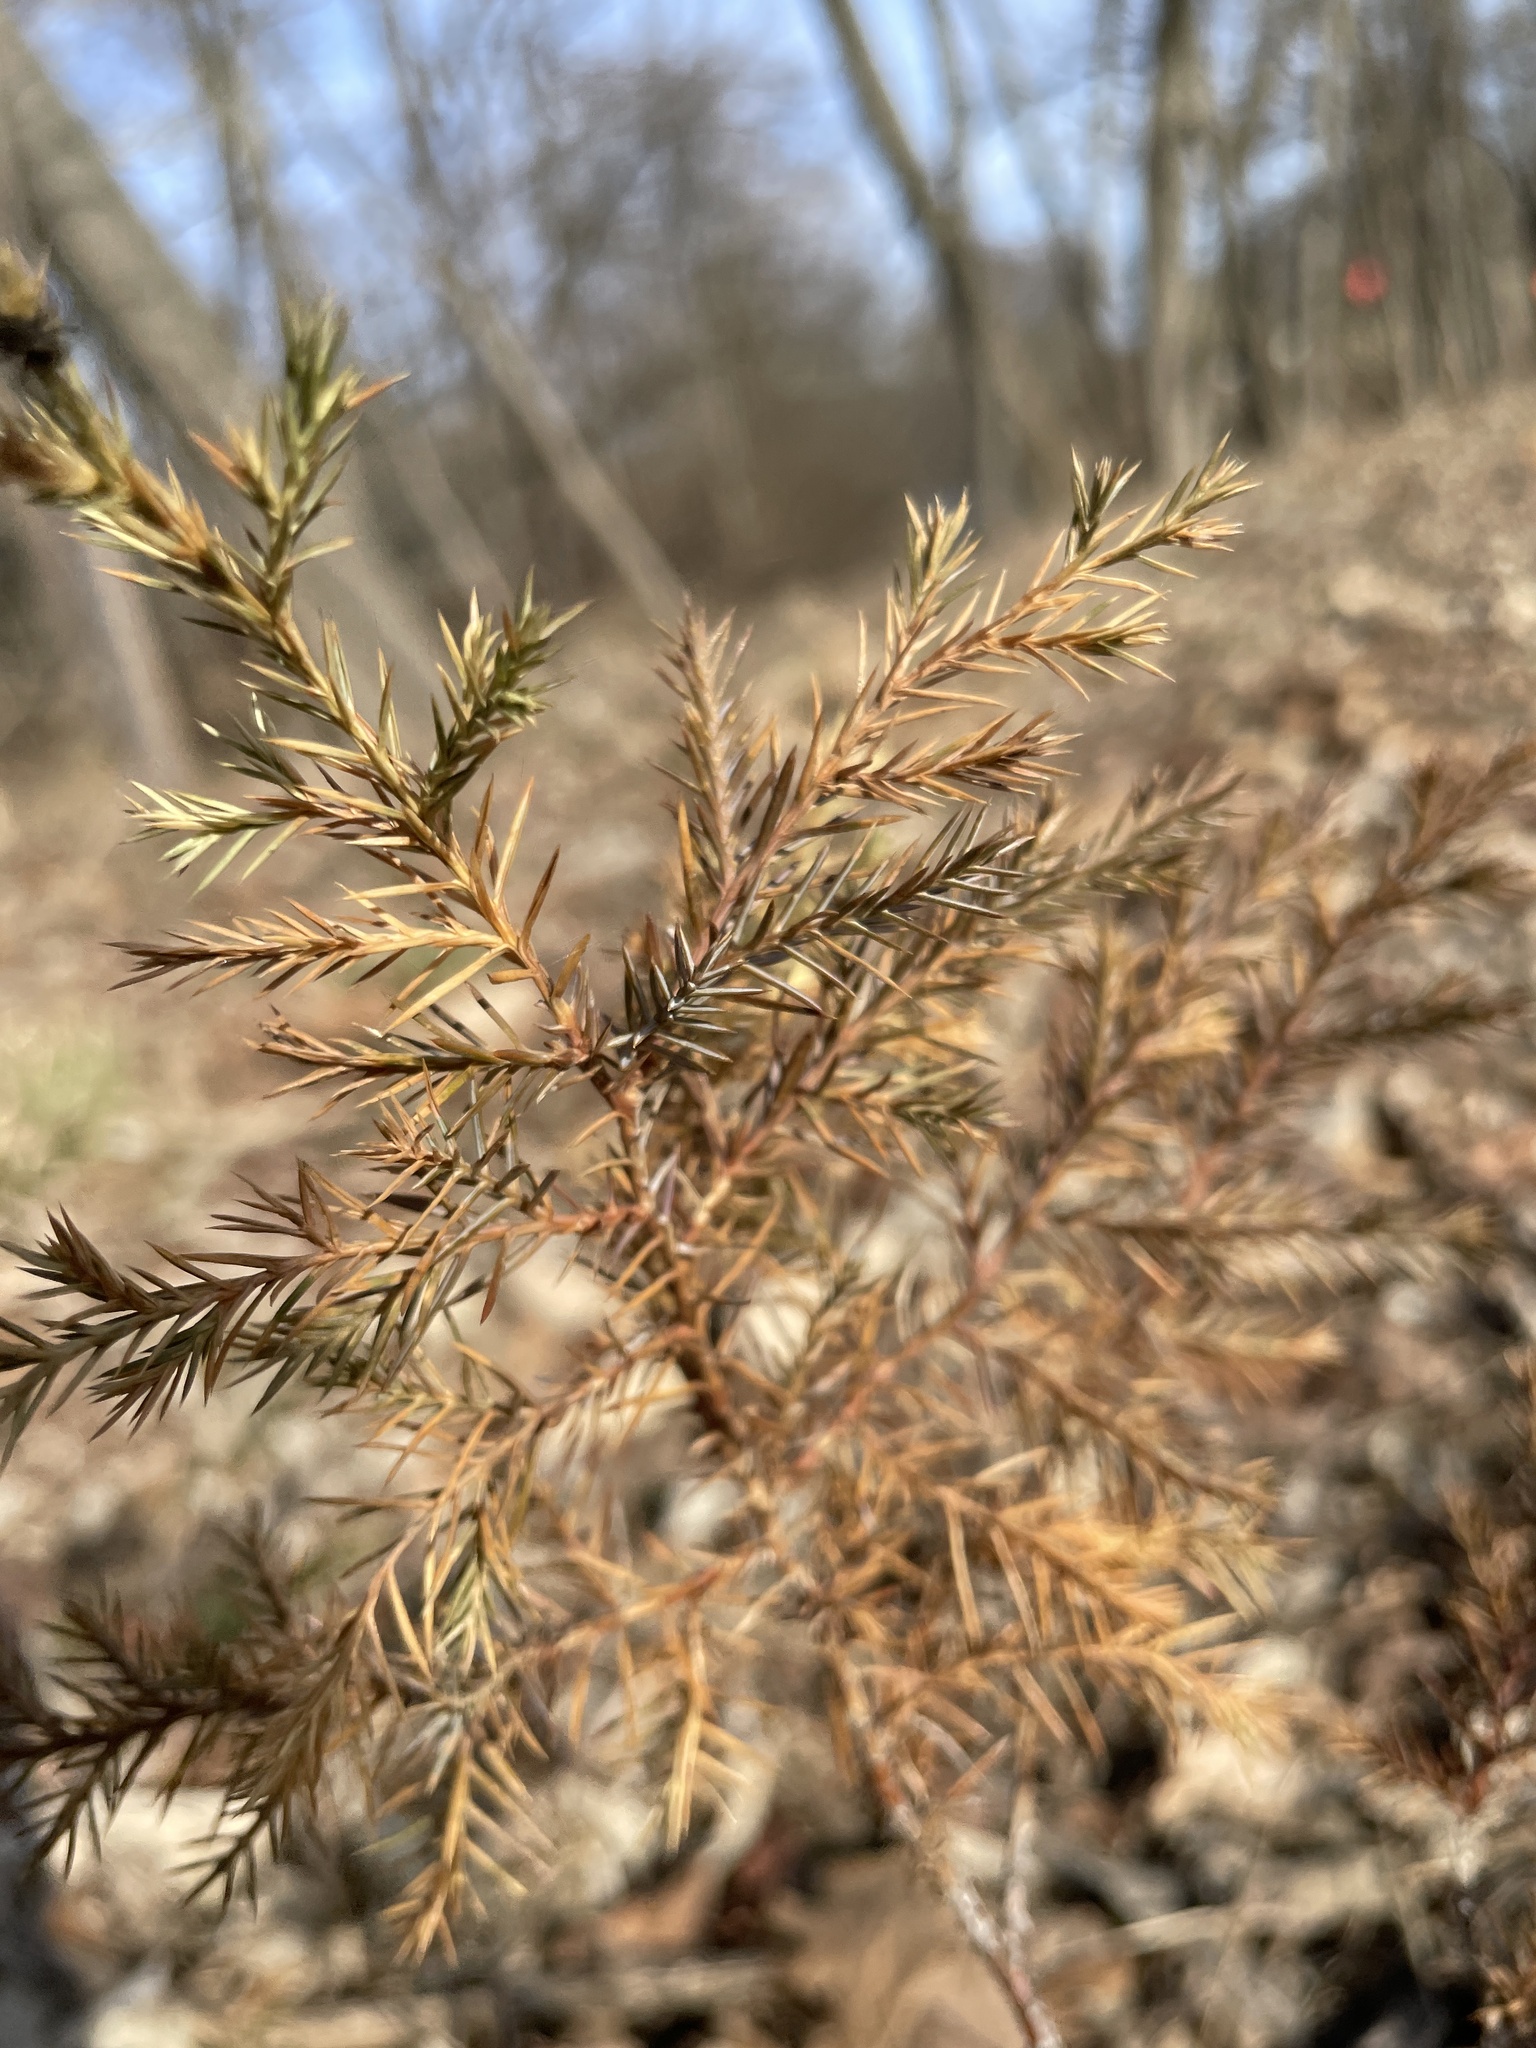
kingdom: Plantae
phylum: Tracheophyta
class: Pinopsida
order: Pinales
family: Cupressaceae
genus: Juniperus
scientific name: Juniperus virginiana
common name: Red juniper
